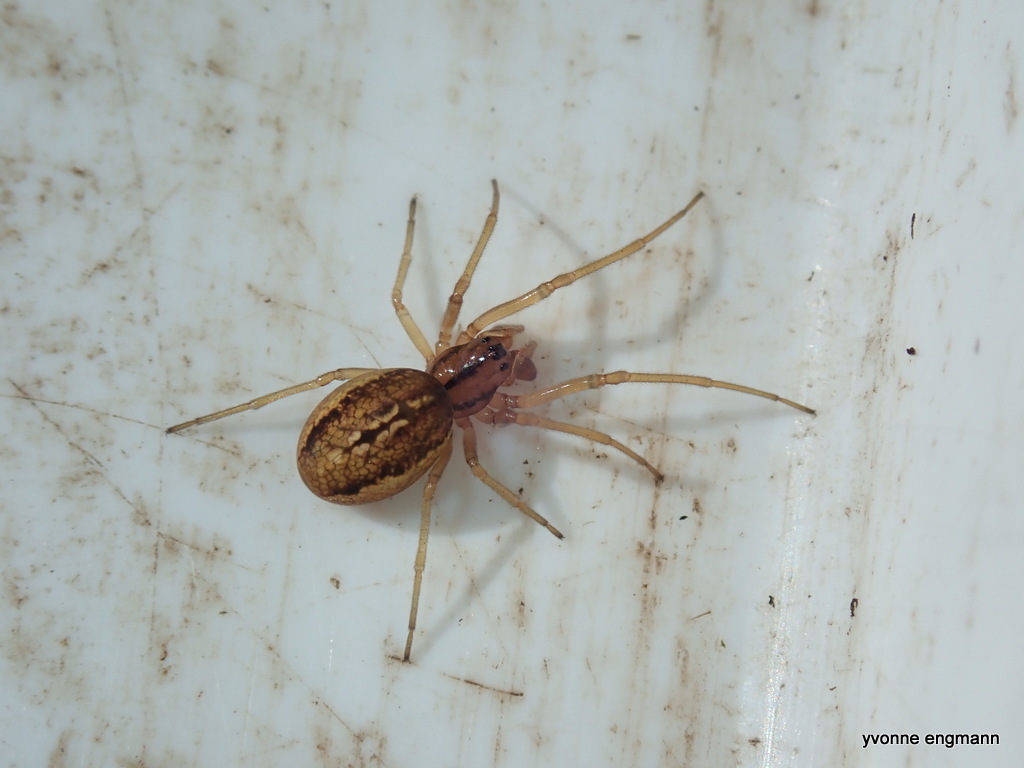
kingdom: Animalia
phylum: Arthropoda
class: Arachnida
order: Araneae
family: Tetragnathidae
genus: Pachygnatha
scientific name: Pachygnatha clercki
